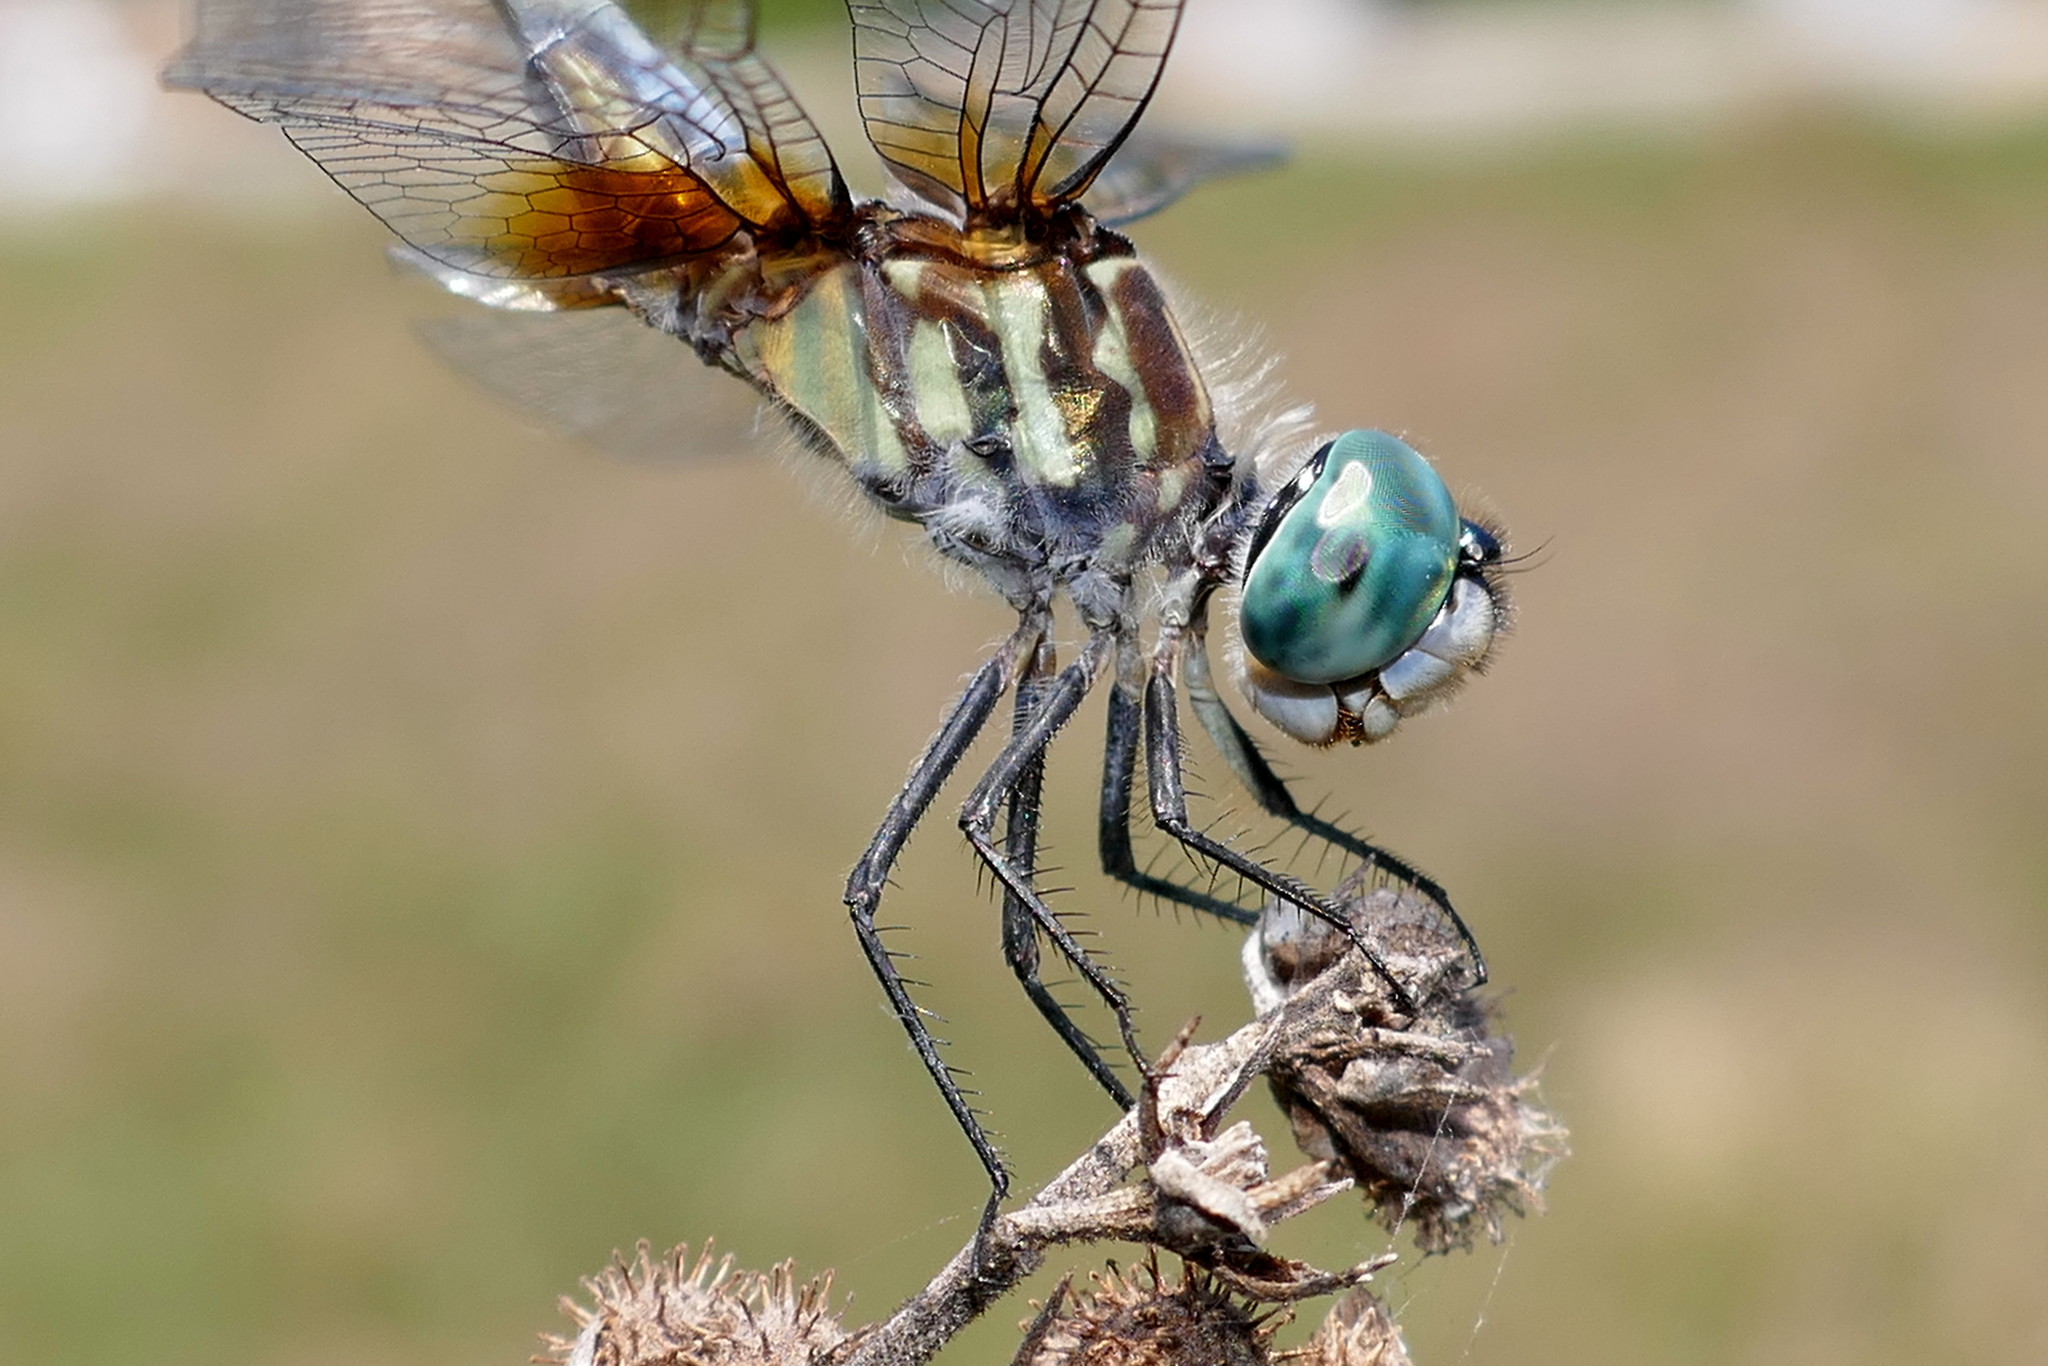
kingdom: Animalia
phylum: Arthropoda
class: Insecta
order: Odonata
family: Libellulidae
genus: Pachydiplax
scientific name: Pachydiplax longipennis
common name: Blue dasher
